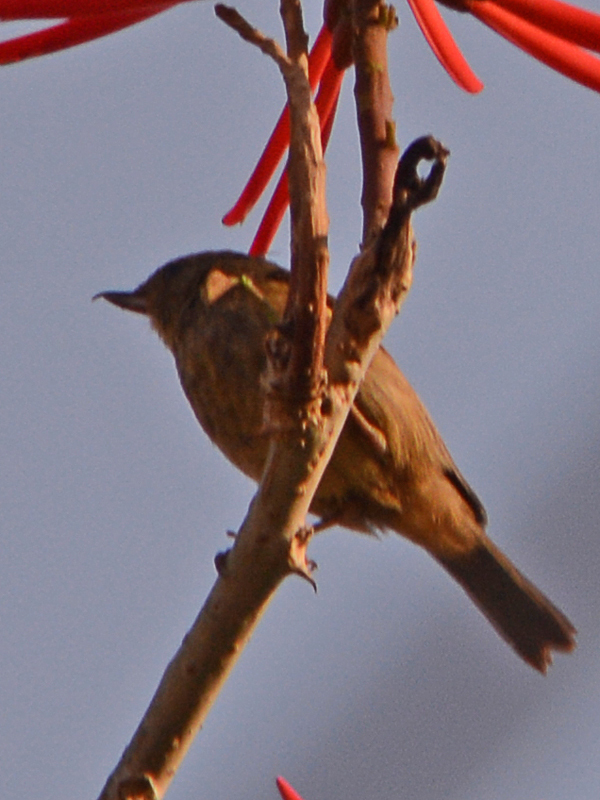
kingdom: Animalia
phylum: Chordata
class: Aves
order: Passeriformes
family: Thraupidae
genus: Diglossa
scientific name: Diglossa baritula
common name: Cinnamon-bellied flowerpiercer
